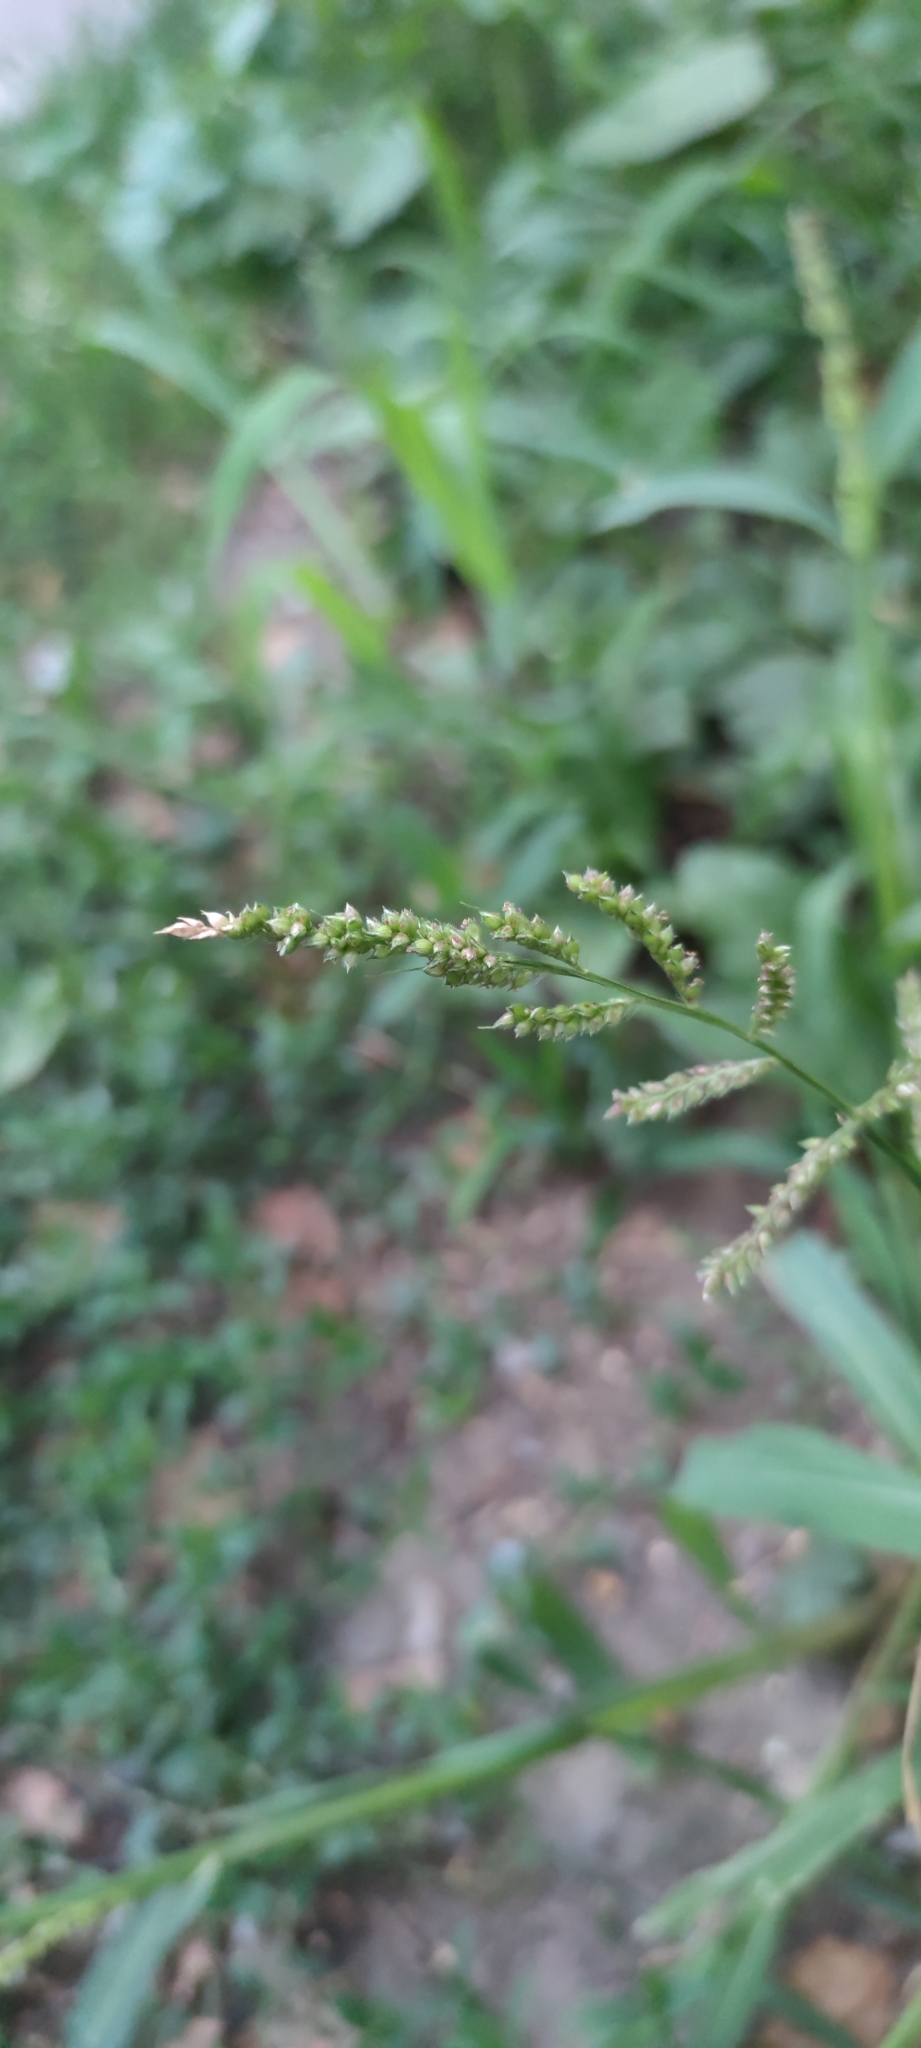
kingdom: Plantae
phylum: Tracheophyta
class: Liliopsida
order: Poales
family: Poaceae
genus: Echinochloa
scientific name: Echinochloa crus-galli
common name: Cockspur
